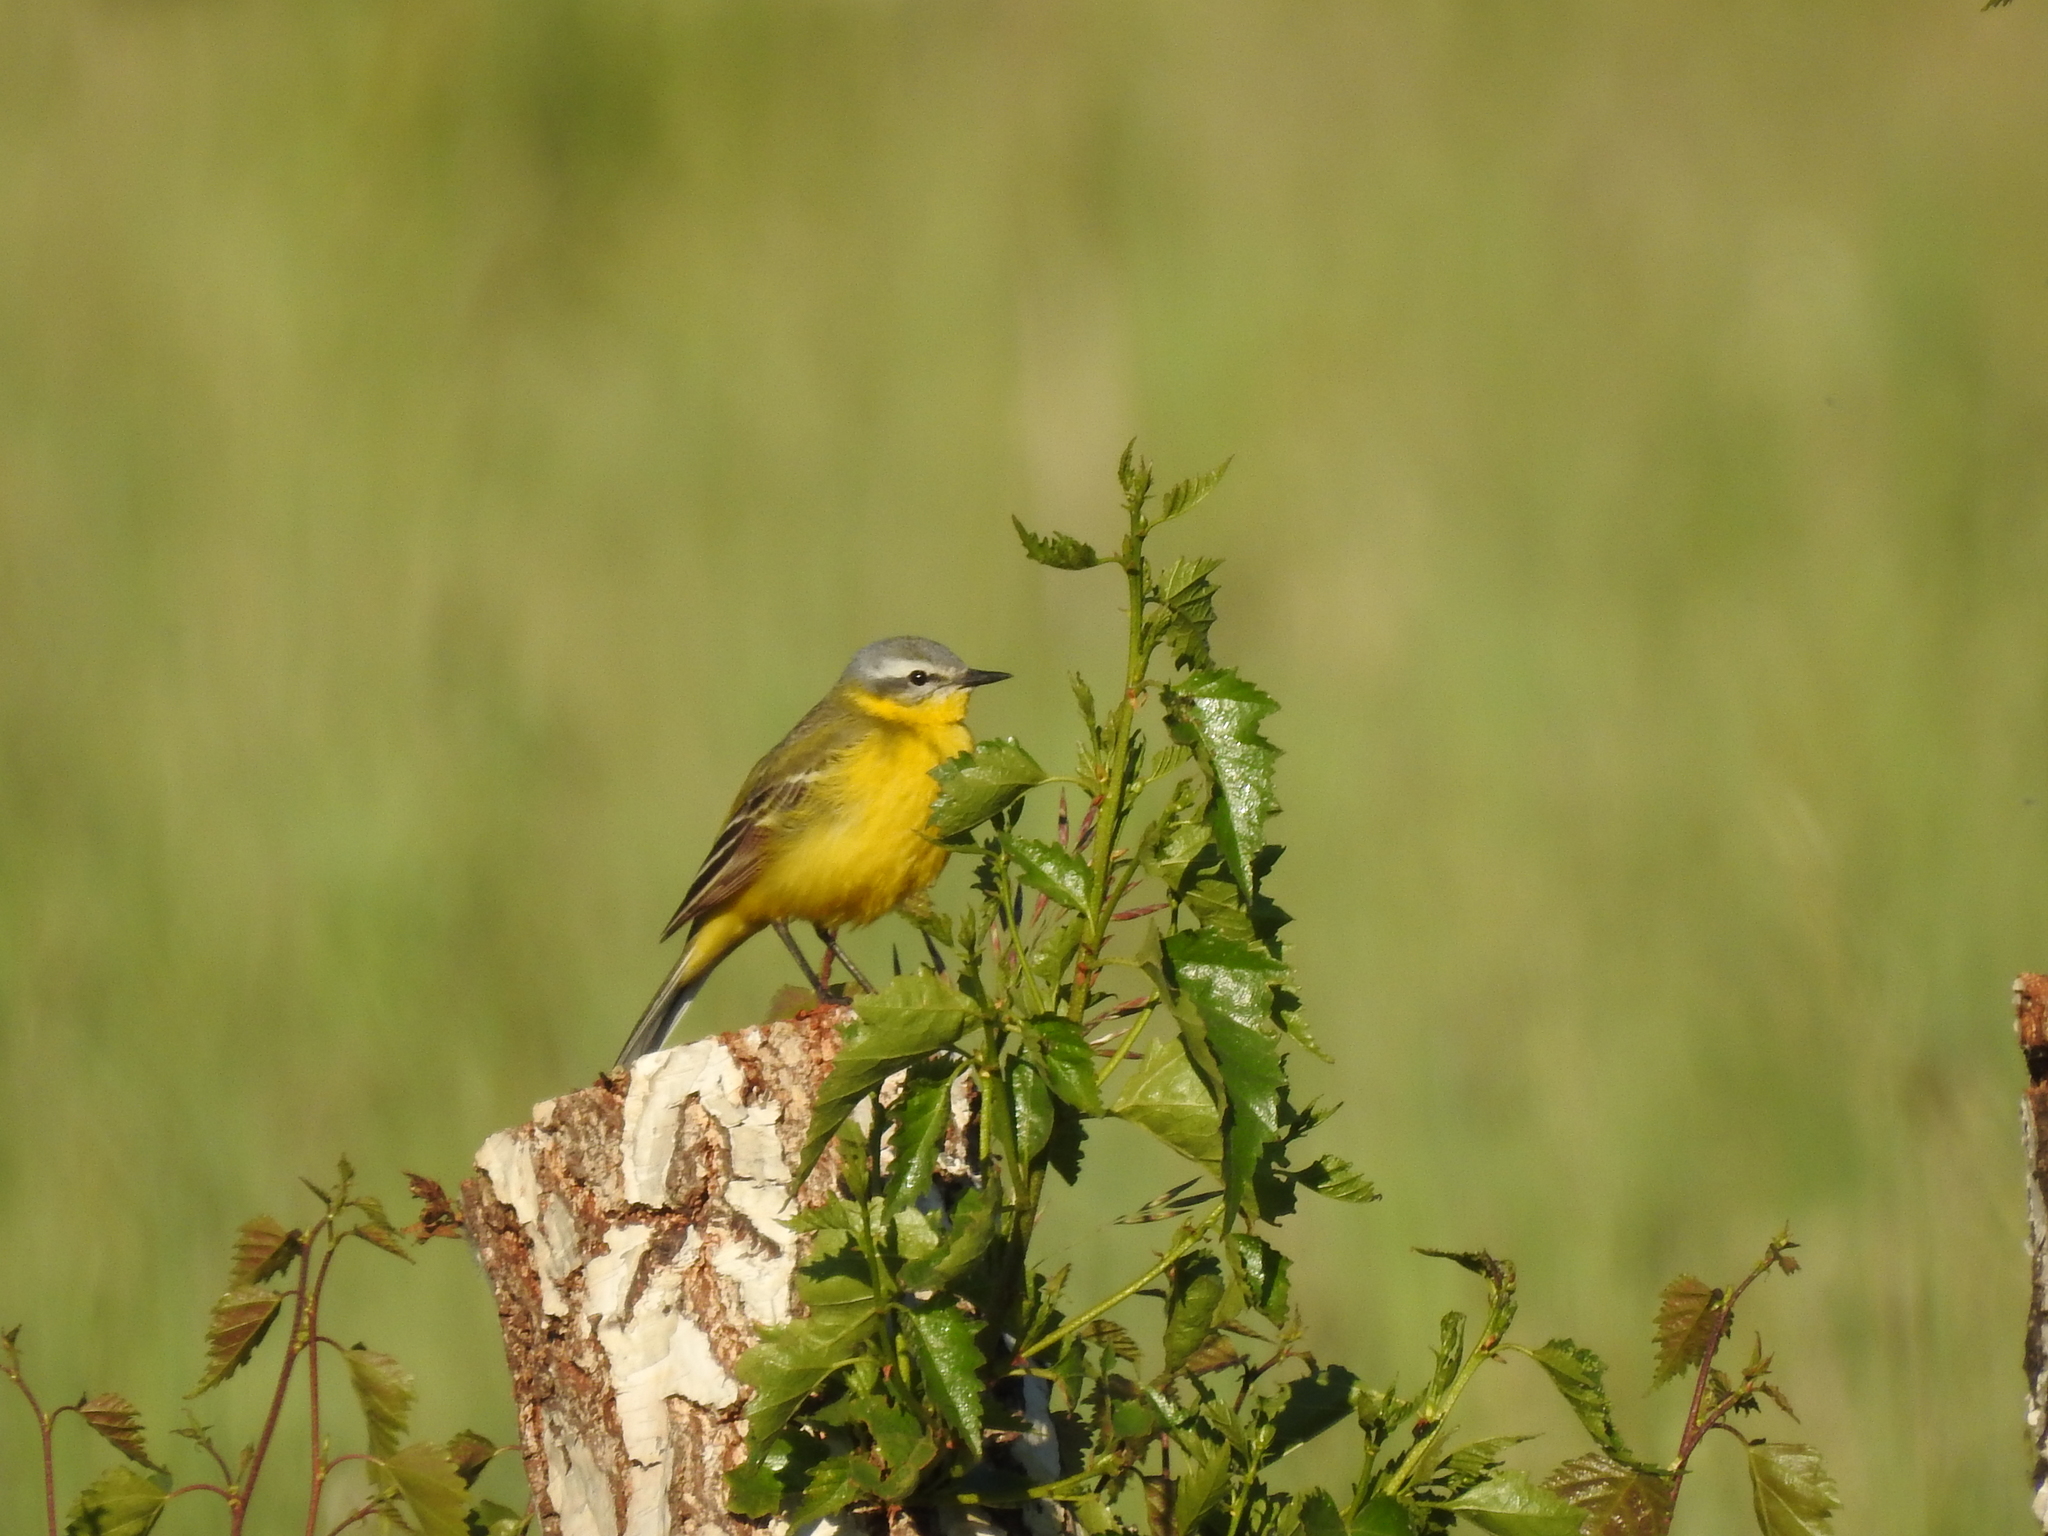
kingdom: Animalia
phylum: Chordata
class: Aves
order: Passeriformes
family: Motacillidae
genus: Motacilla
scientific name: Motacilla flava
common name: Western yellow wagtail
